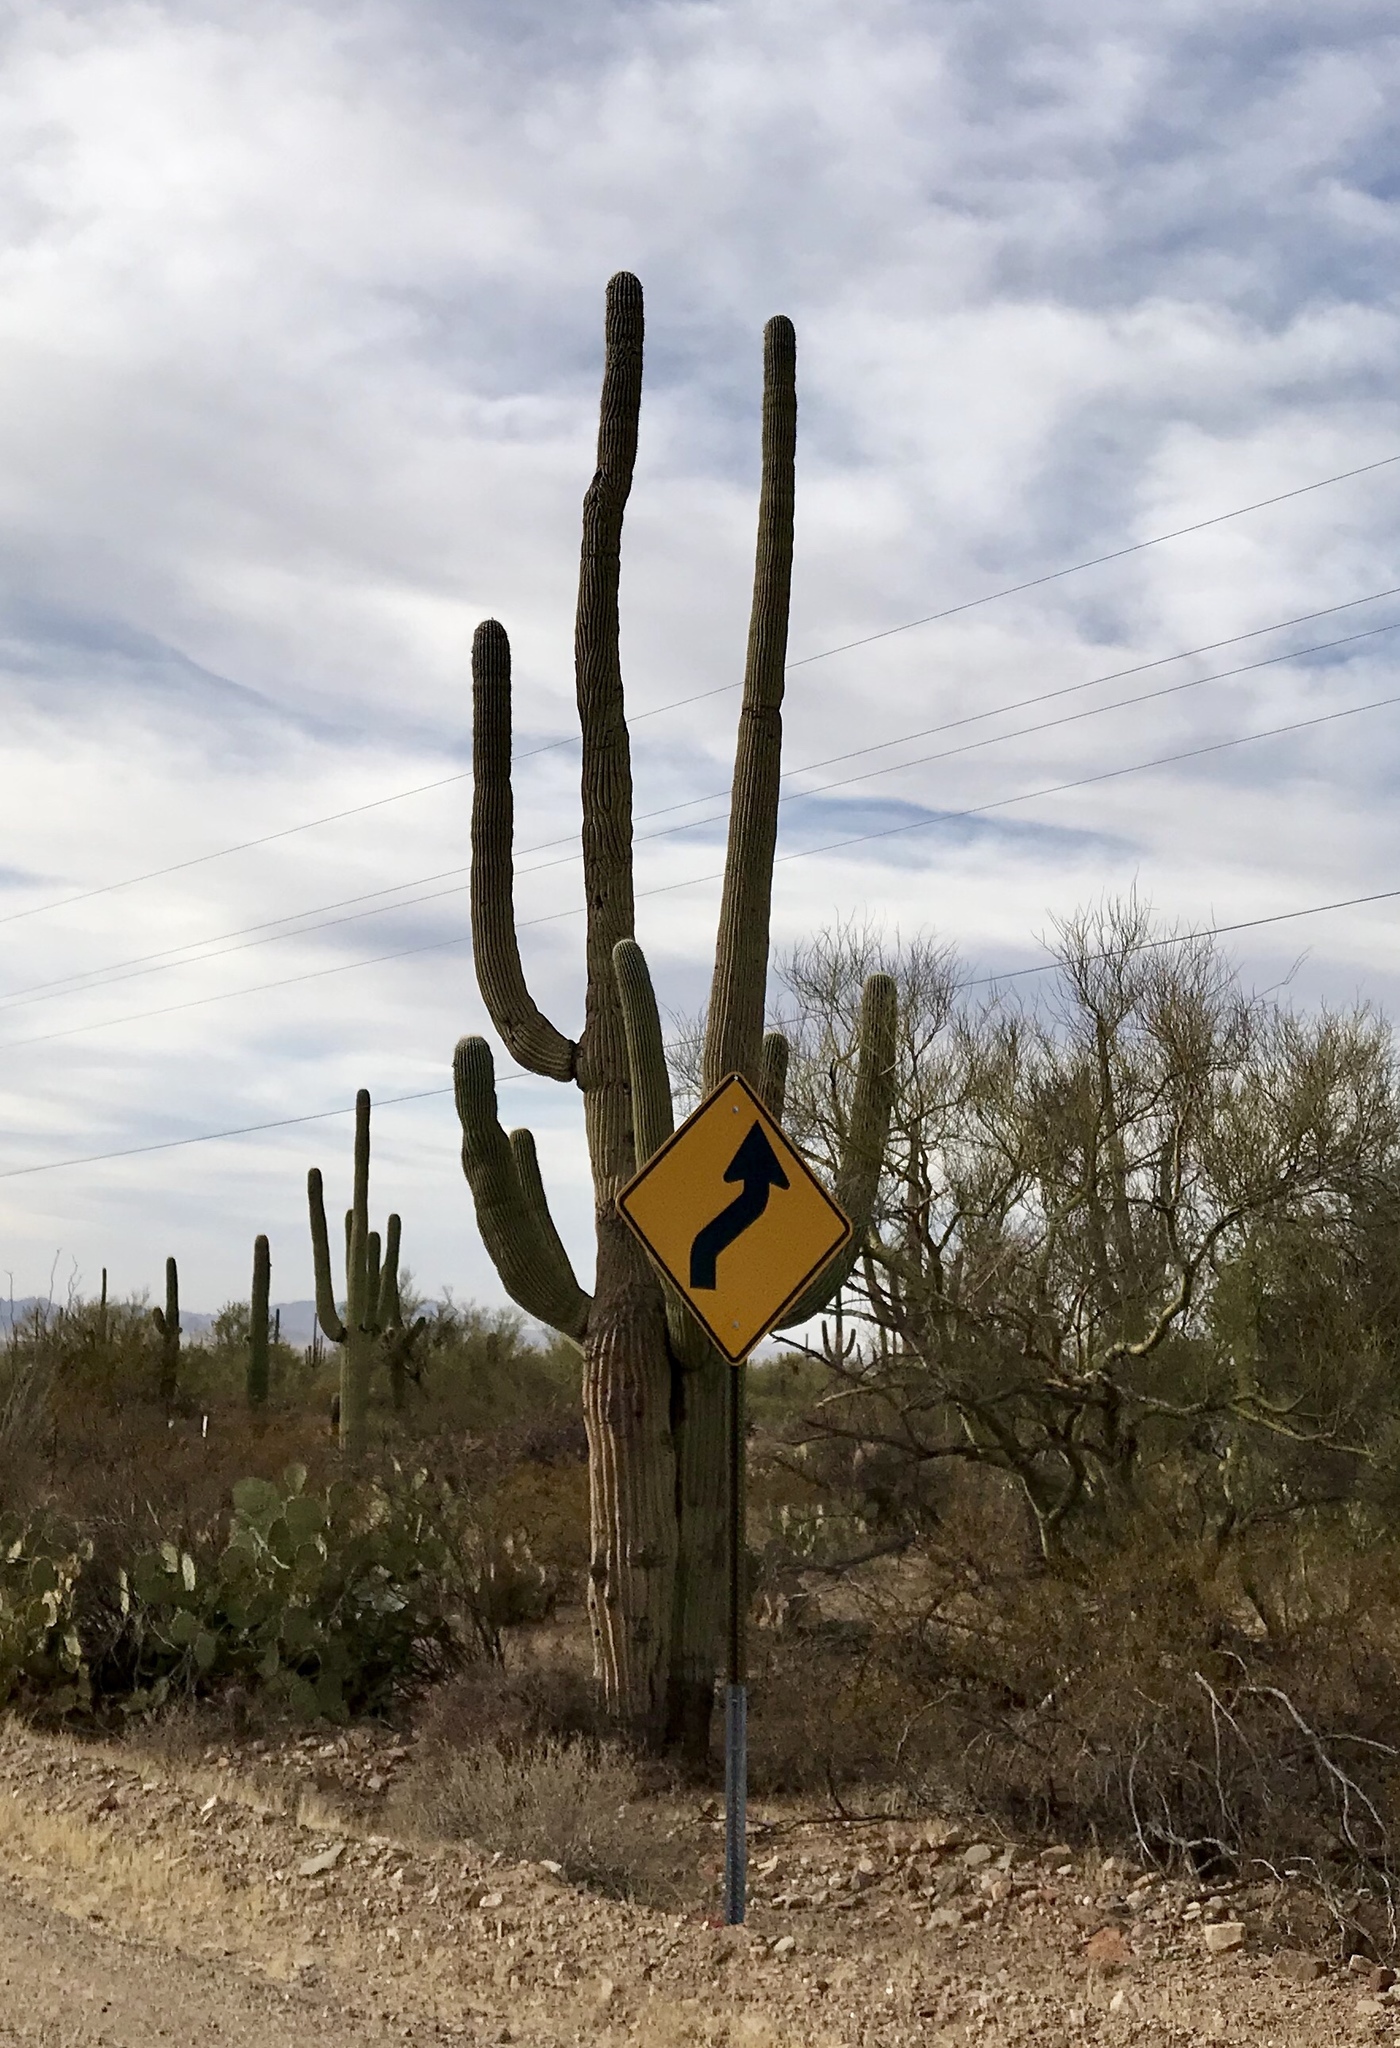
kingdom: Plantae
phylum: Tracheophyta
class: Magnoliopsida
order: Caryophyllales
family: Cactaceae
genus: Carnegiea
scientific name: Carnegiea gigantea
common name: Saguaro
